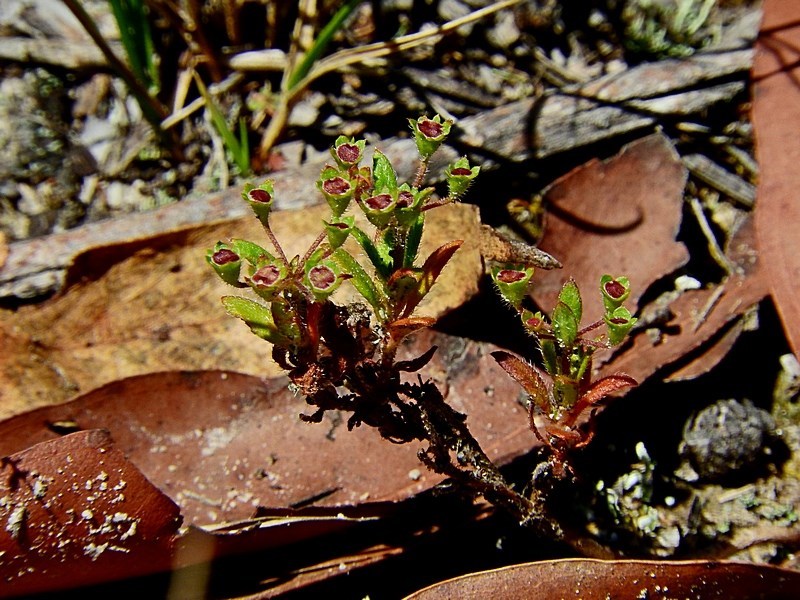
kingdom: Plantae
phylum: Tracheophyta
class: Magnoliopsida
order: Gentianales
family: Rubiaceae
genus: Pomax
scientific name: Pomax umbellata
